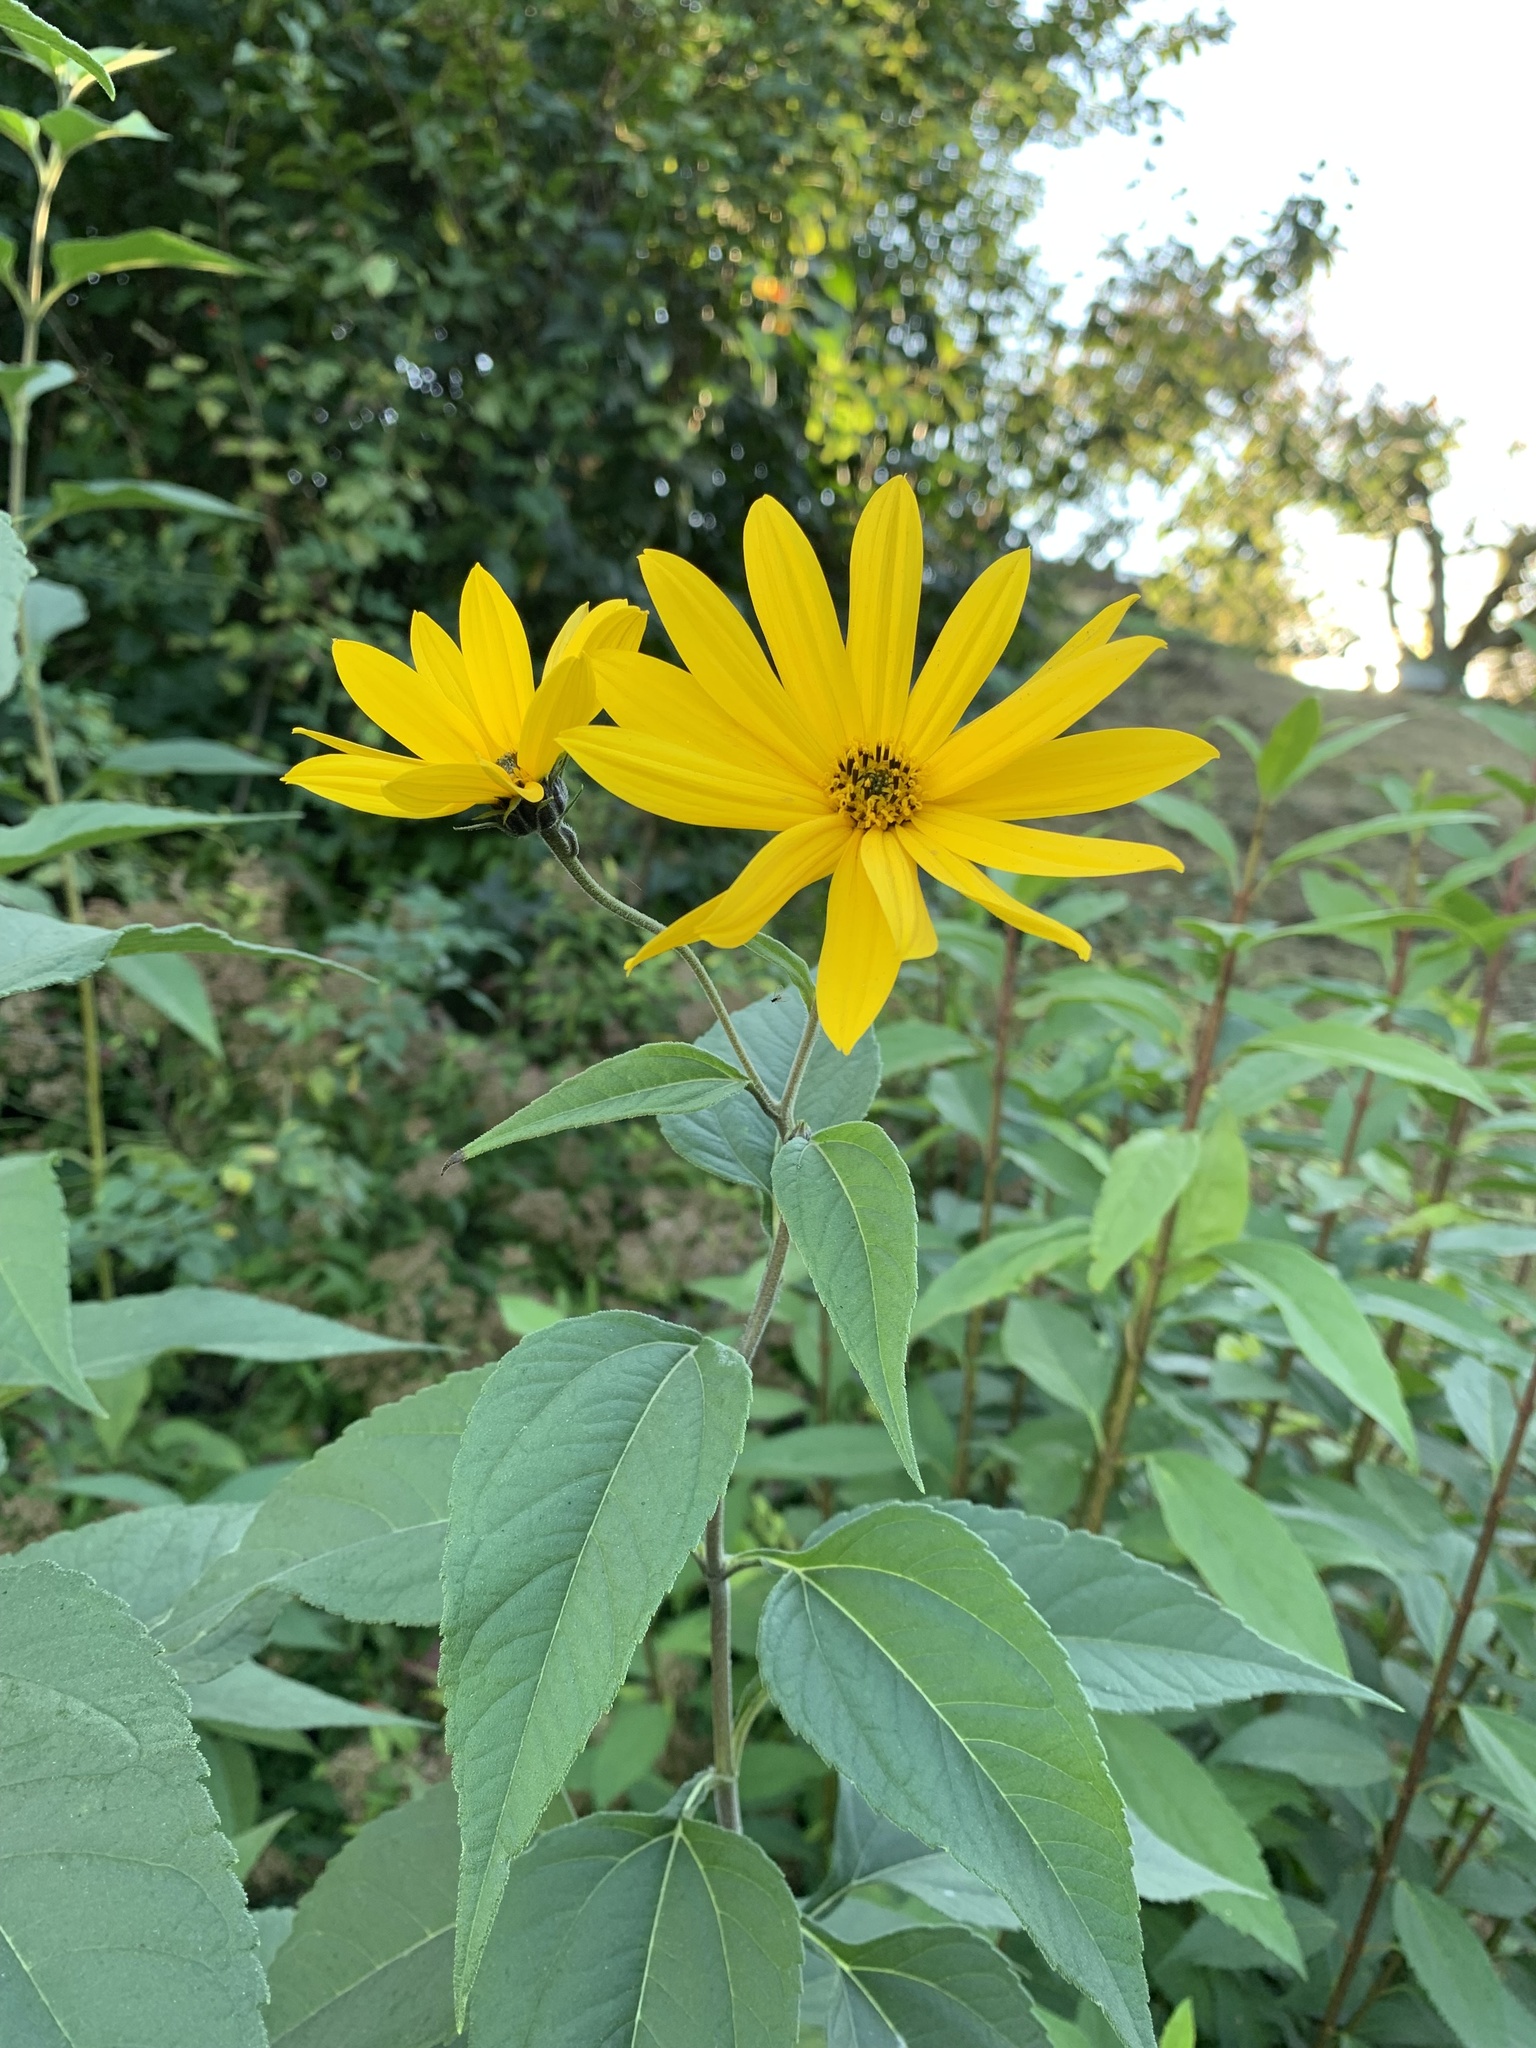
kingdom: Plantae
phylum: Tracheophyta
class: Magnoliopsida
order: Asterales
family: Asteraceae
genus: Helianthus
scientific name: Helianthus tuberosus
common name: Jerusalem artichoke
